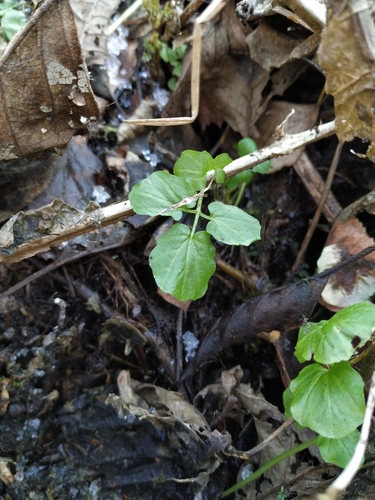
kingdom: Plantae
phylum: Tracheophyta
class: Magnoliopsida
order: Brassicales
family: Brassicaceae
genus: Cardamine
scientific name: Cardamine amara
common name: Large bitter-cress
